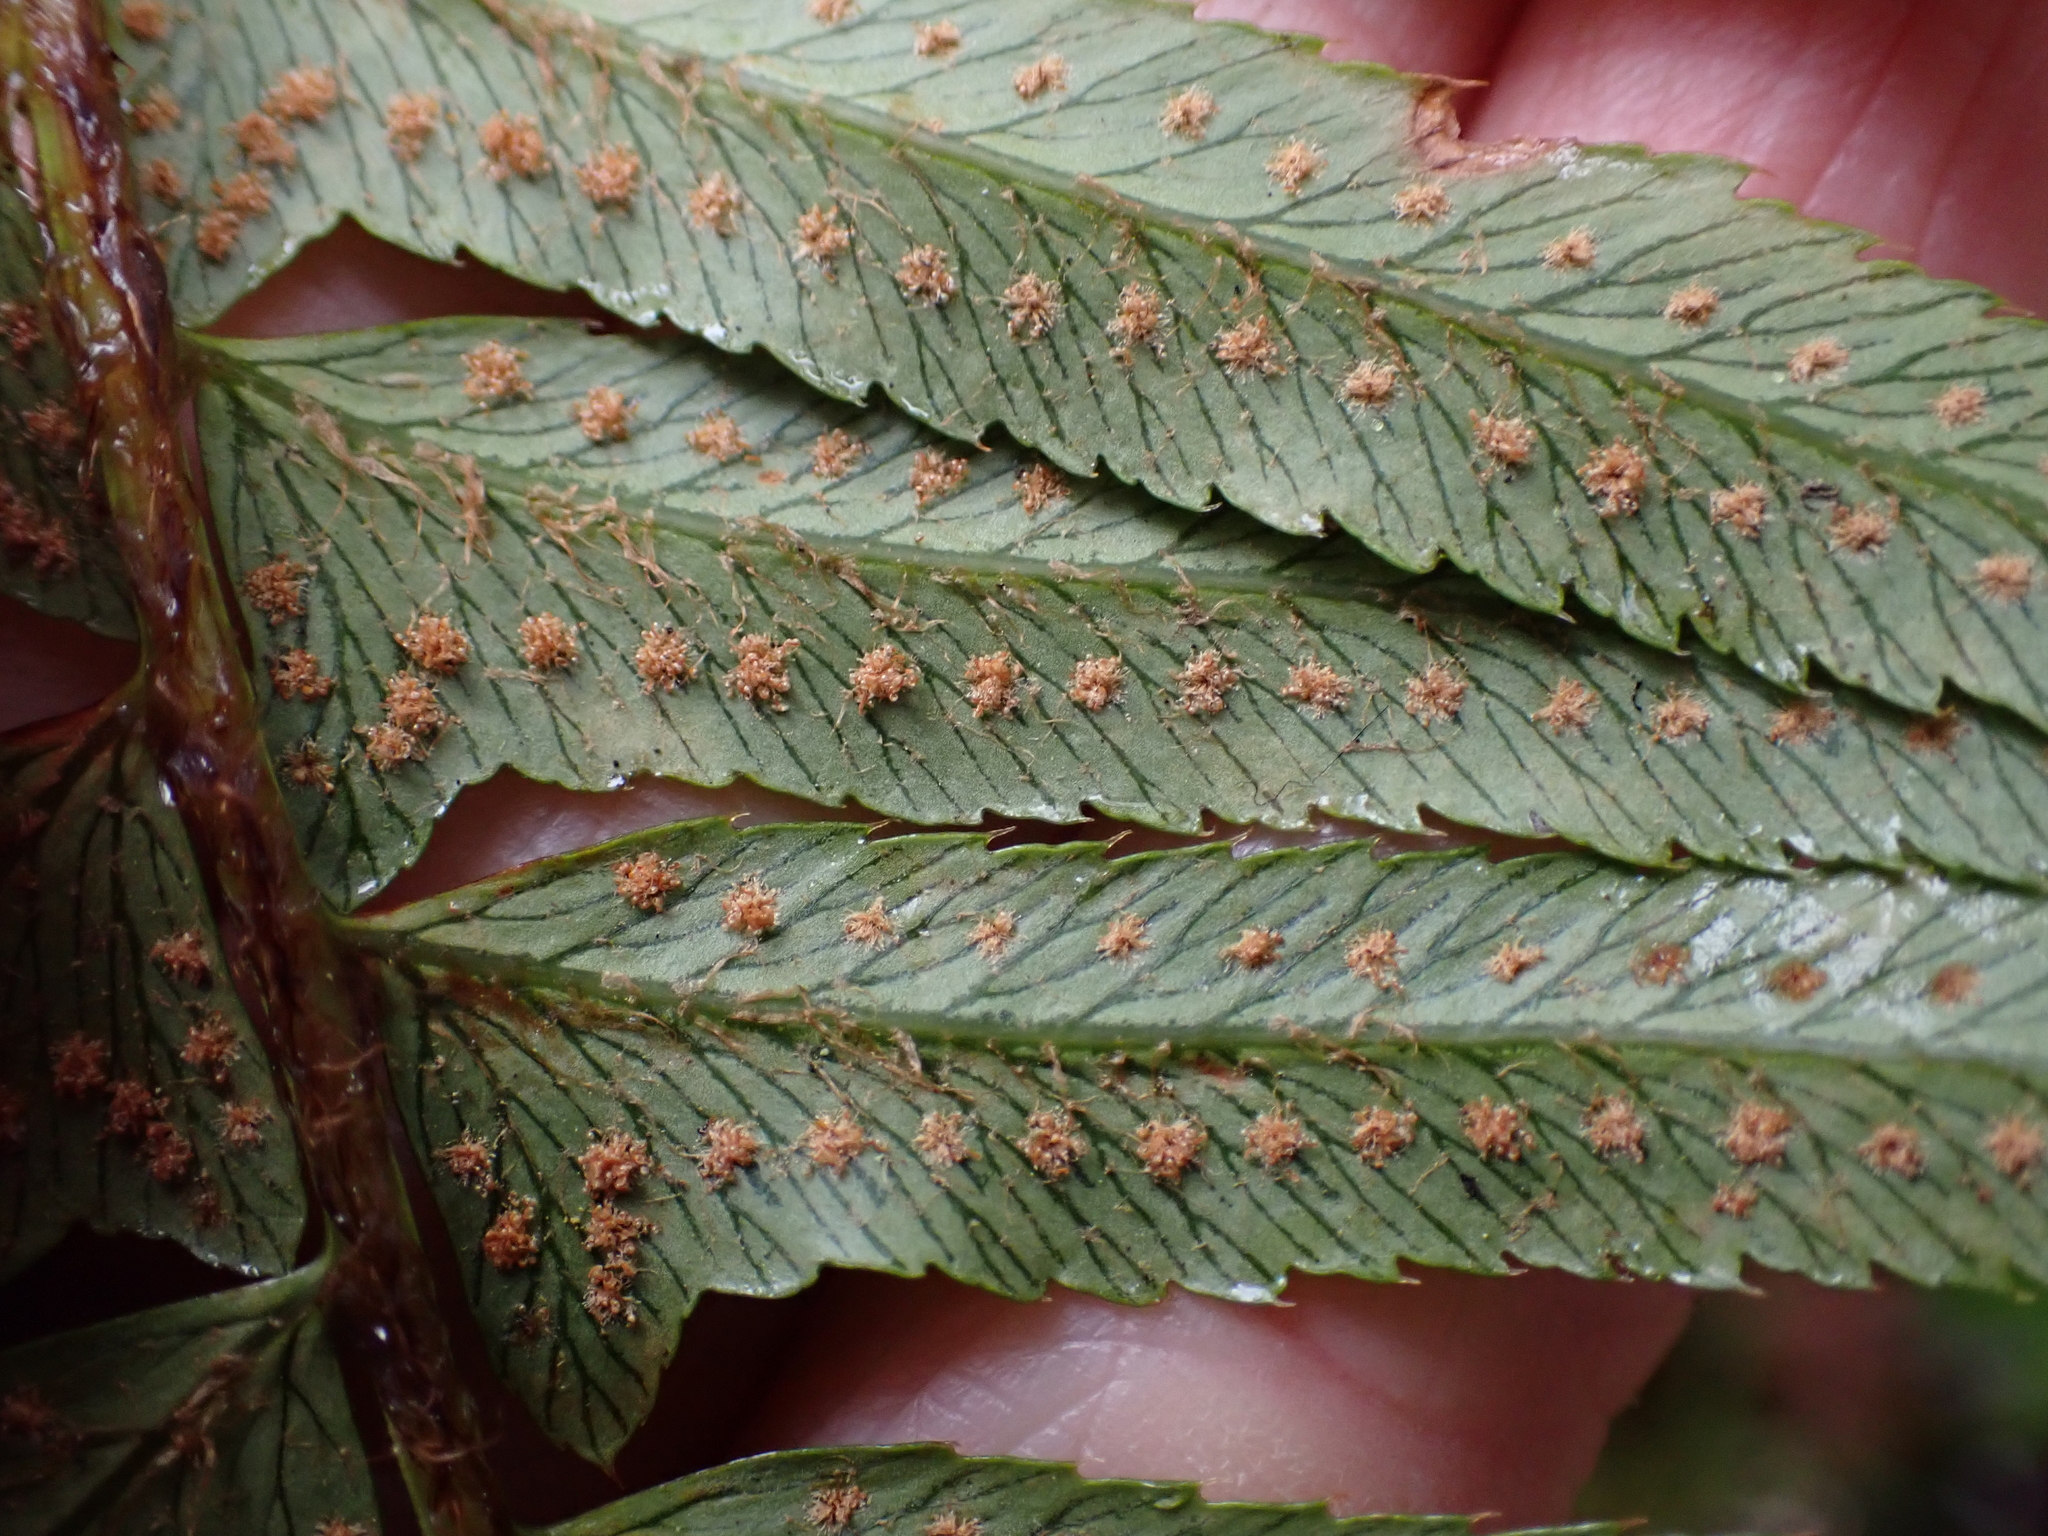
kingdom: Plantae
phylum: Tracheophyta
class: Polypodiopsida
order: Polypodiales
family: Dryopteridaceae
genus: Polystichum
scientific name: Polystichum munitum
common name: Western sword-fern
